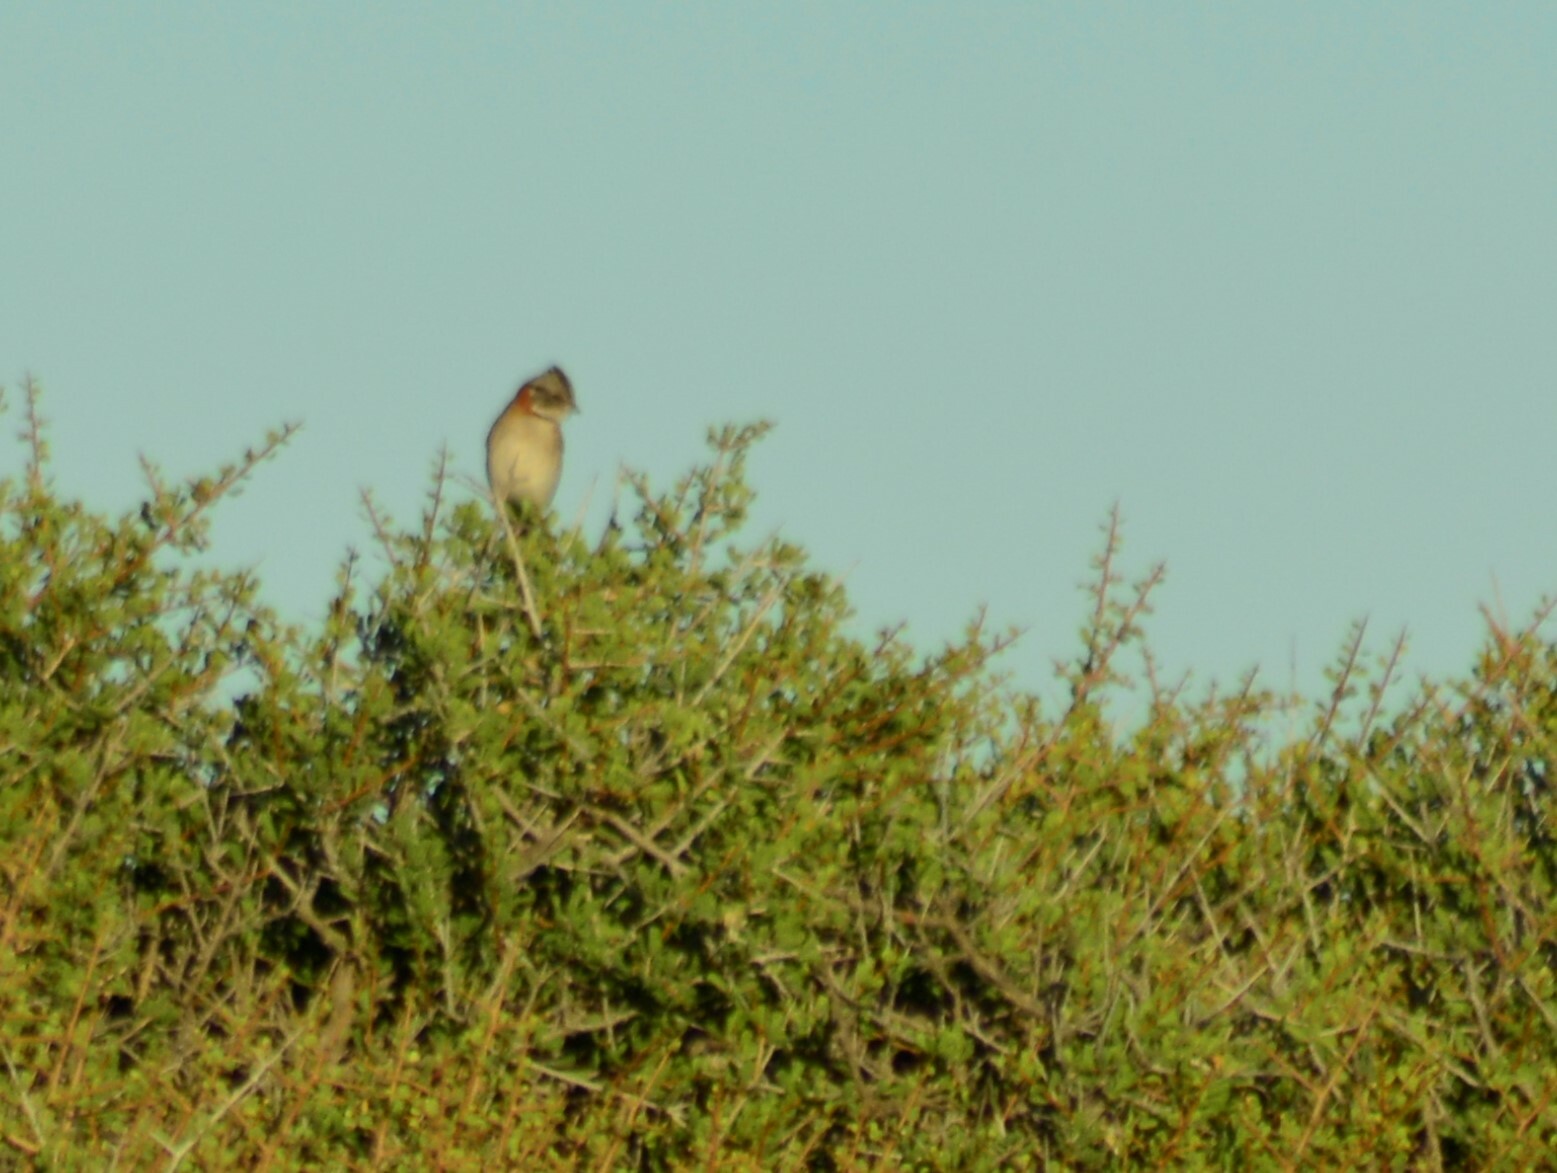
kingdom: Animalia
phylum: Chordata
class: Aves
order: Passeriformes
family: Passerellidae
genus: Zonotrichia
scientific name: Zonotrichia capensis
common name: Rufous-collared sparrow
